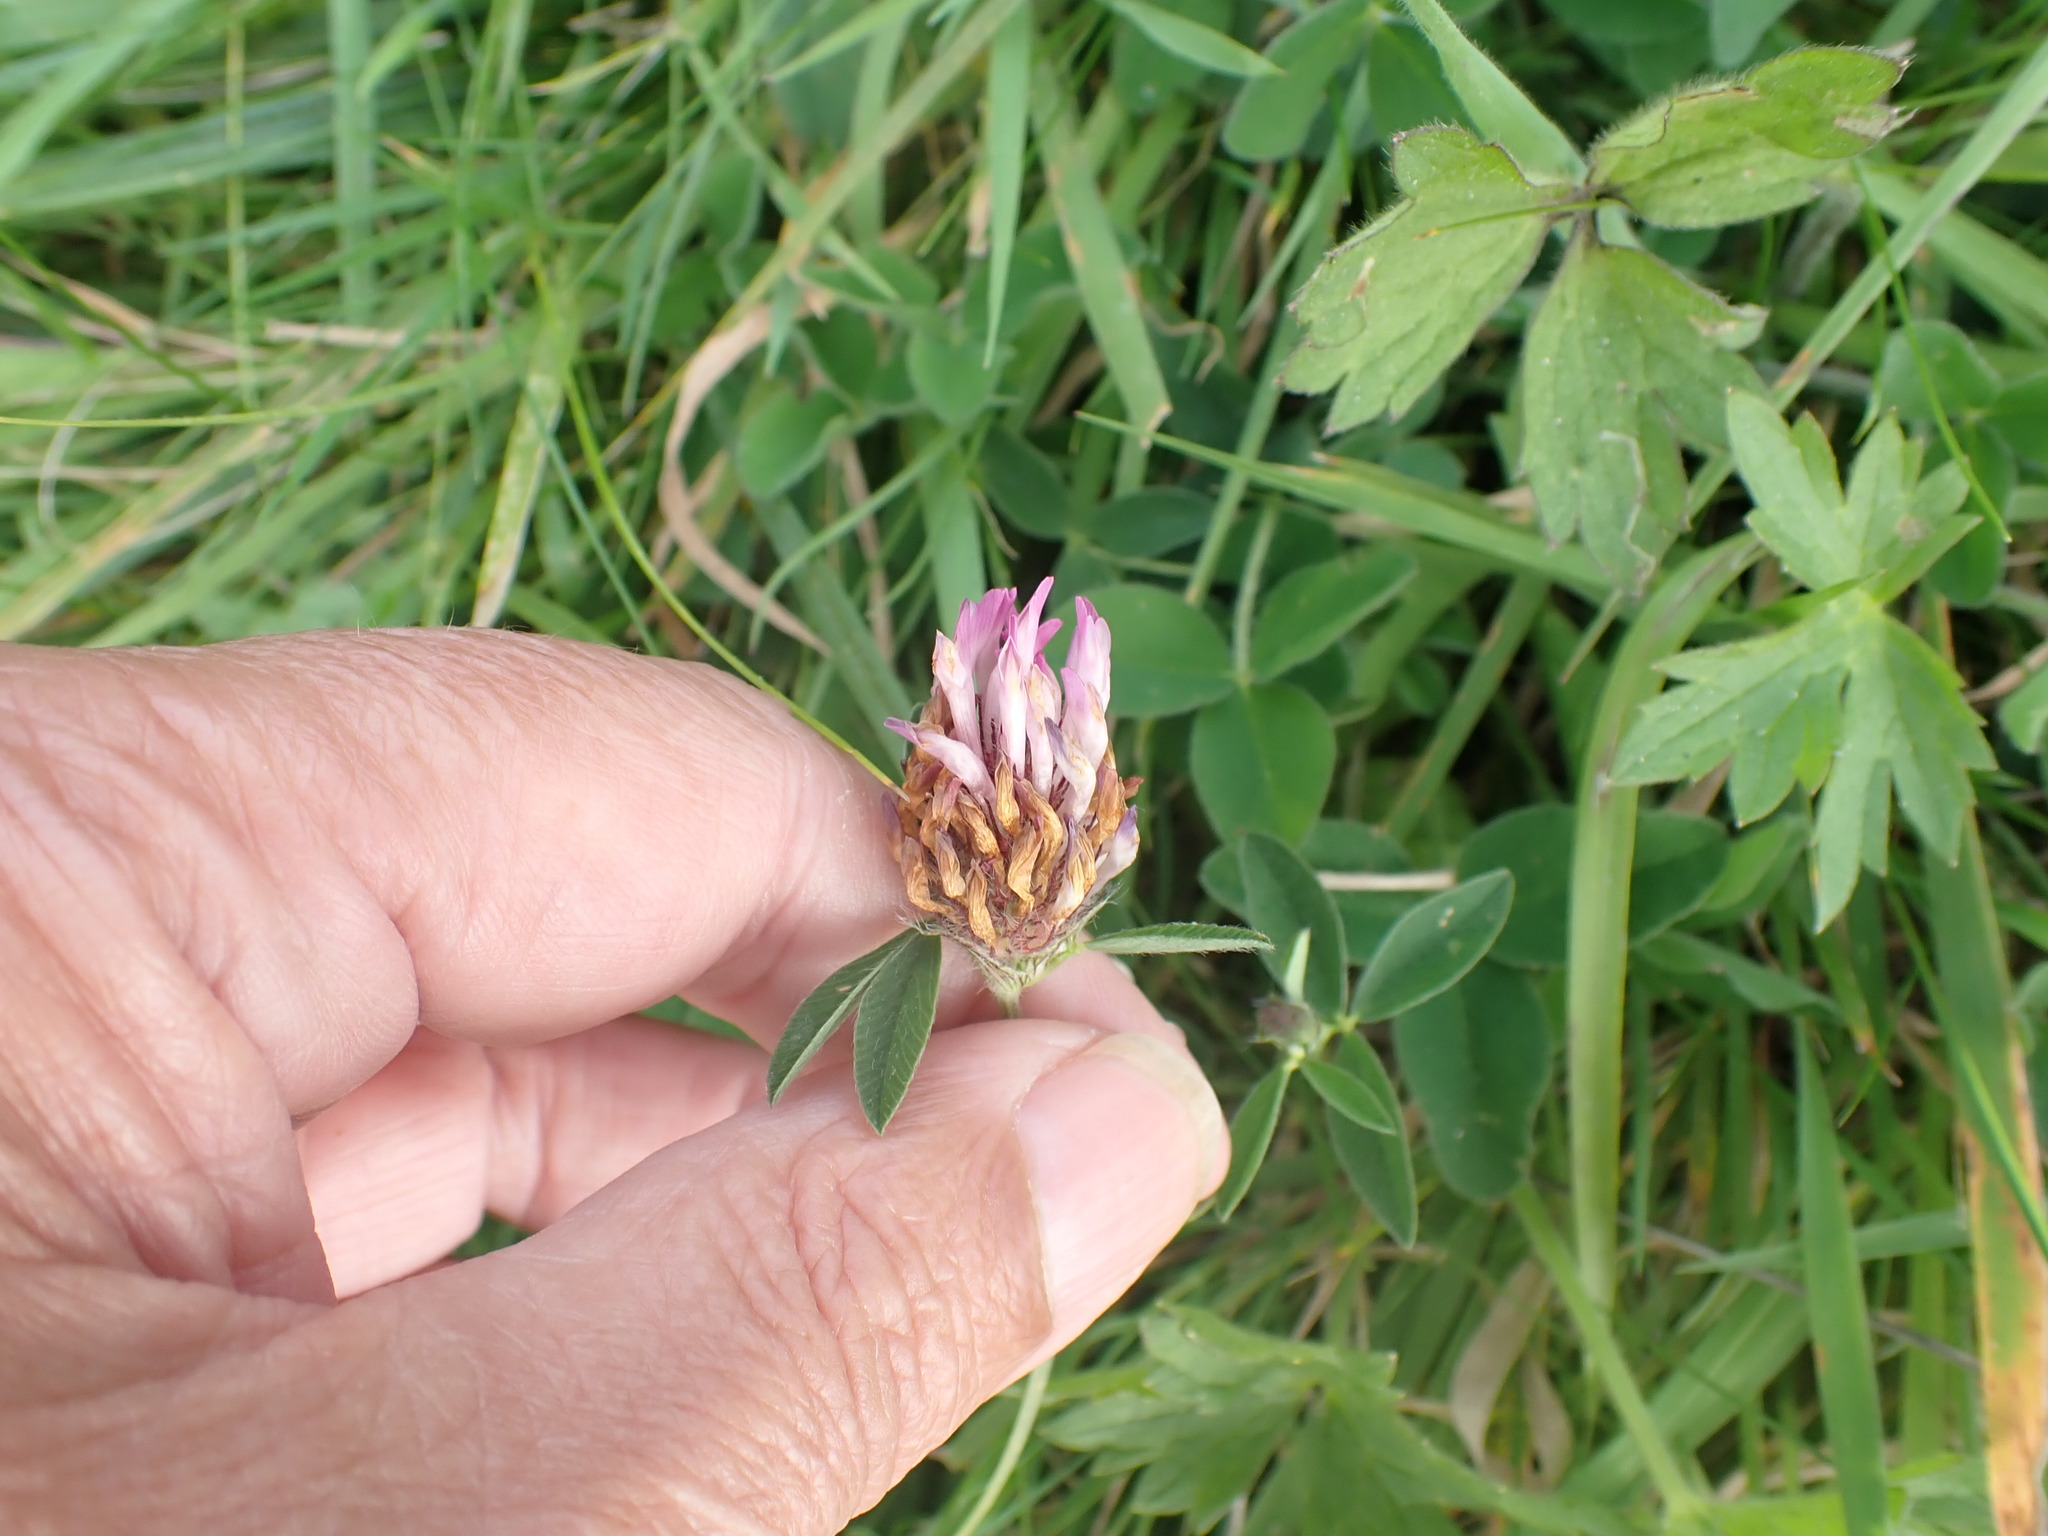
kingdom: Plantae
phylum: Tracheophyta
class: Magnoliopsida
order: Fabales
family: Fabaceae
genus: Trifolium
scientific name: Trifolium pratense
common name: Red clover
